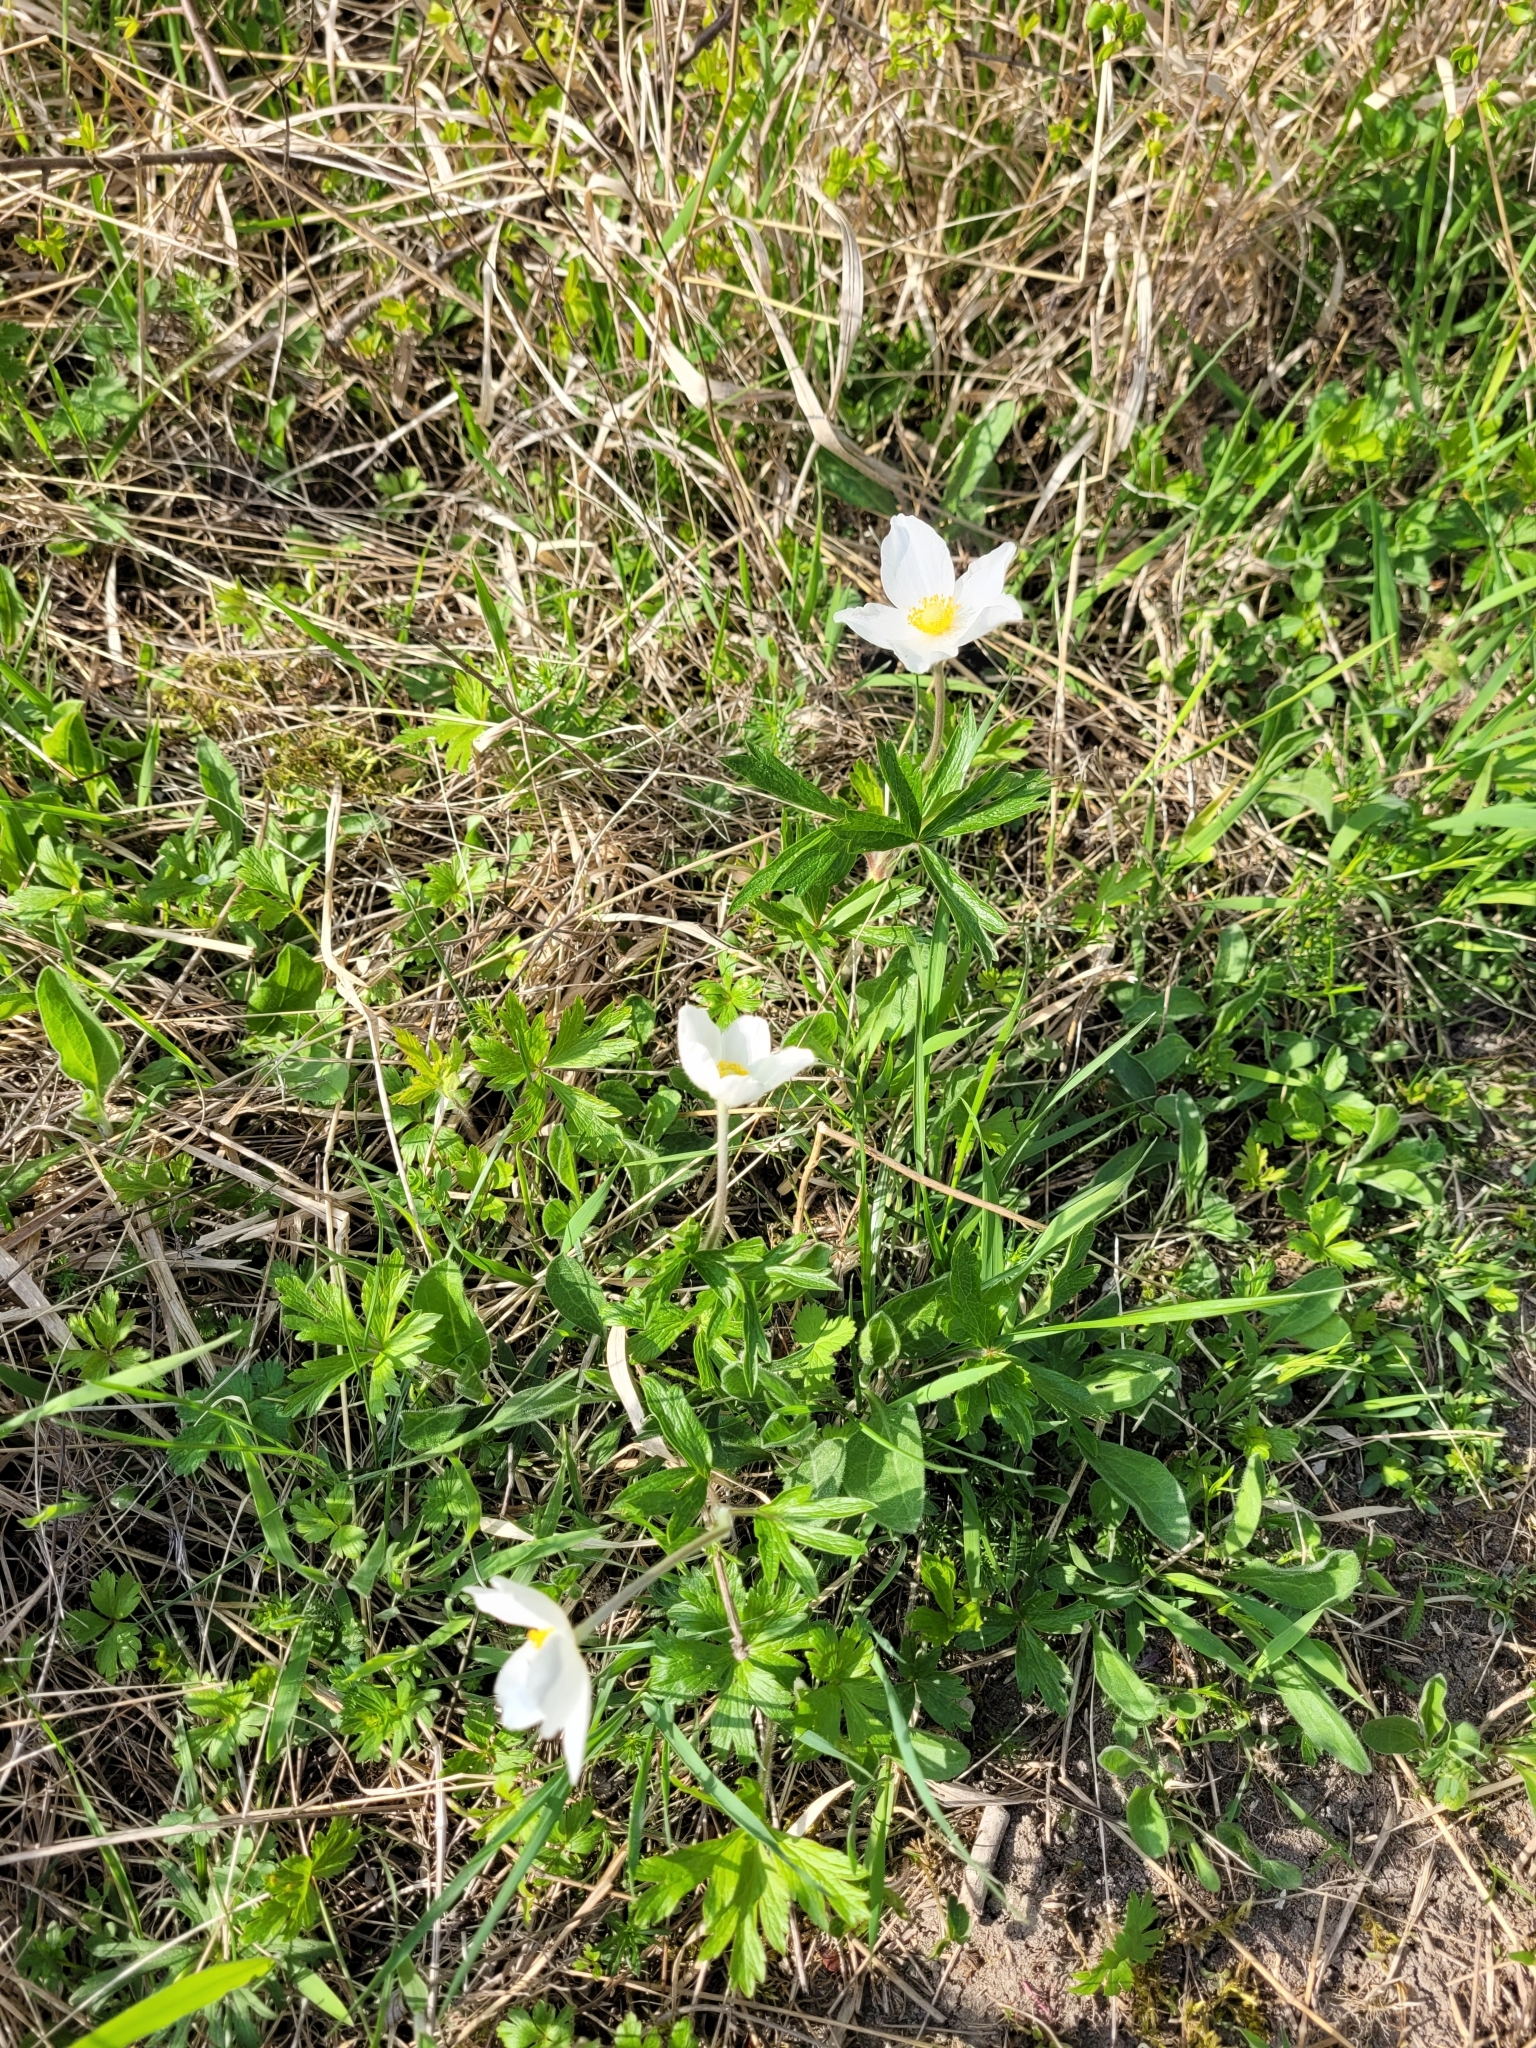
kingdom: Plantae
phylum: Tracheophyta
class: Magnoliopsida
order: Ranunculales
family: Ranunculaceae
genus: Anemone
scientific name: Anemone sylvestris
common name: Snowdrop anemone
